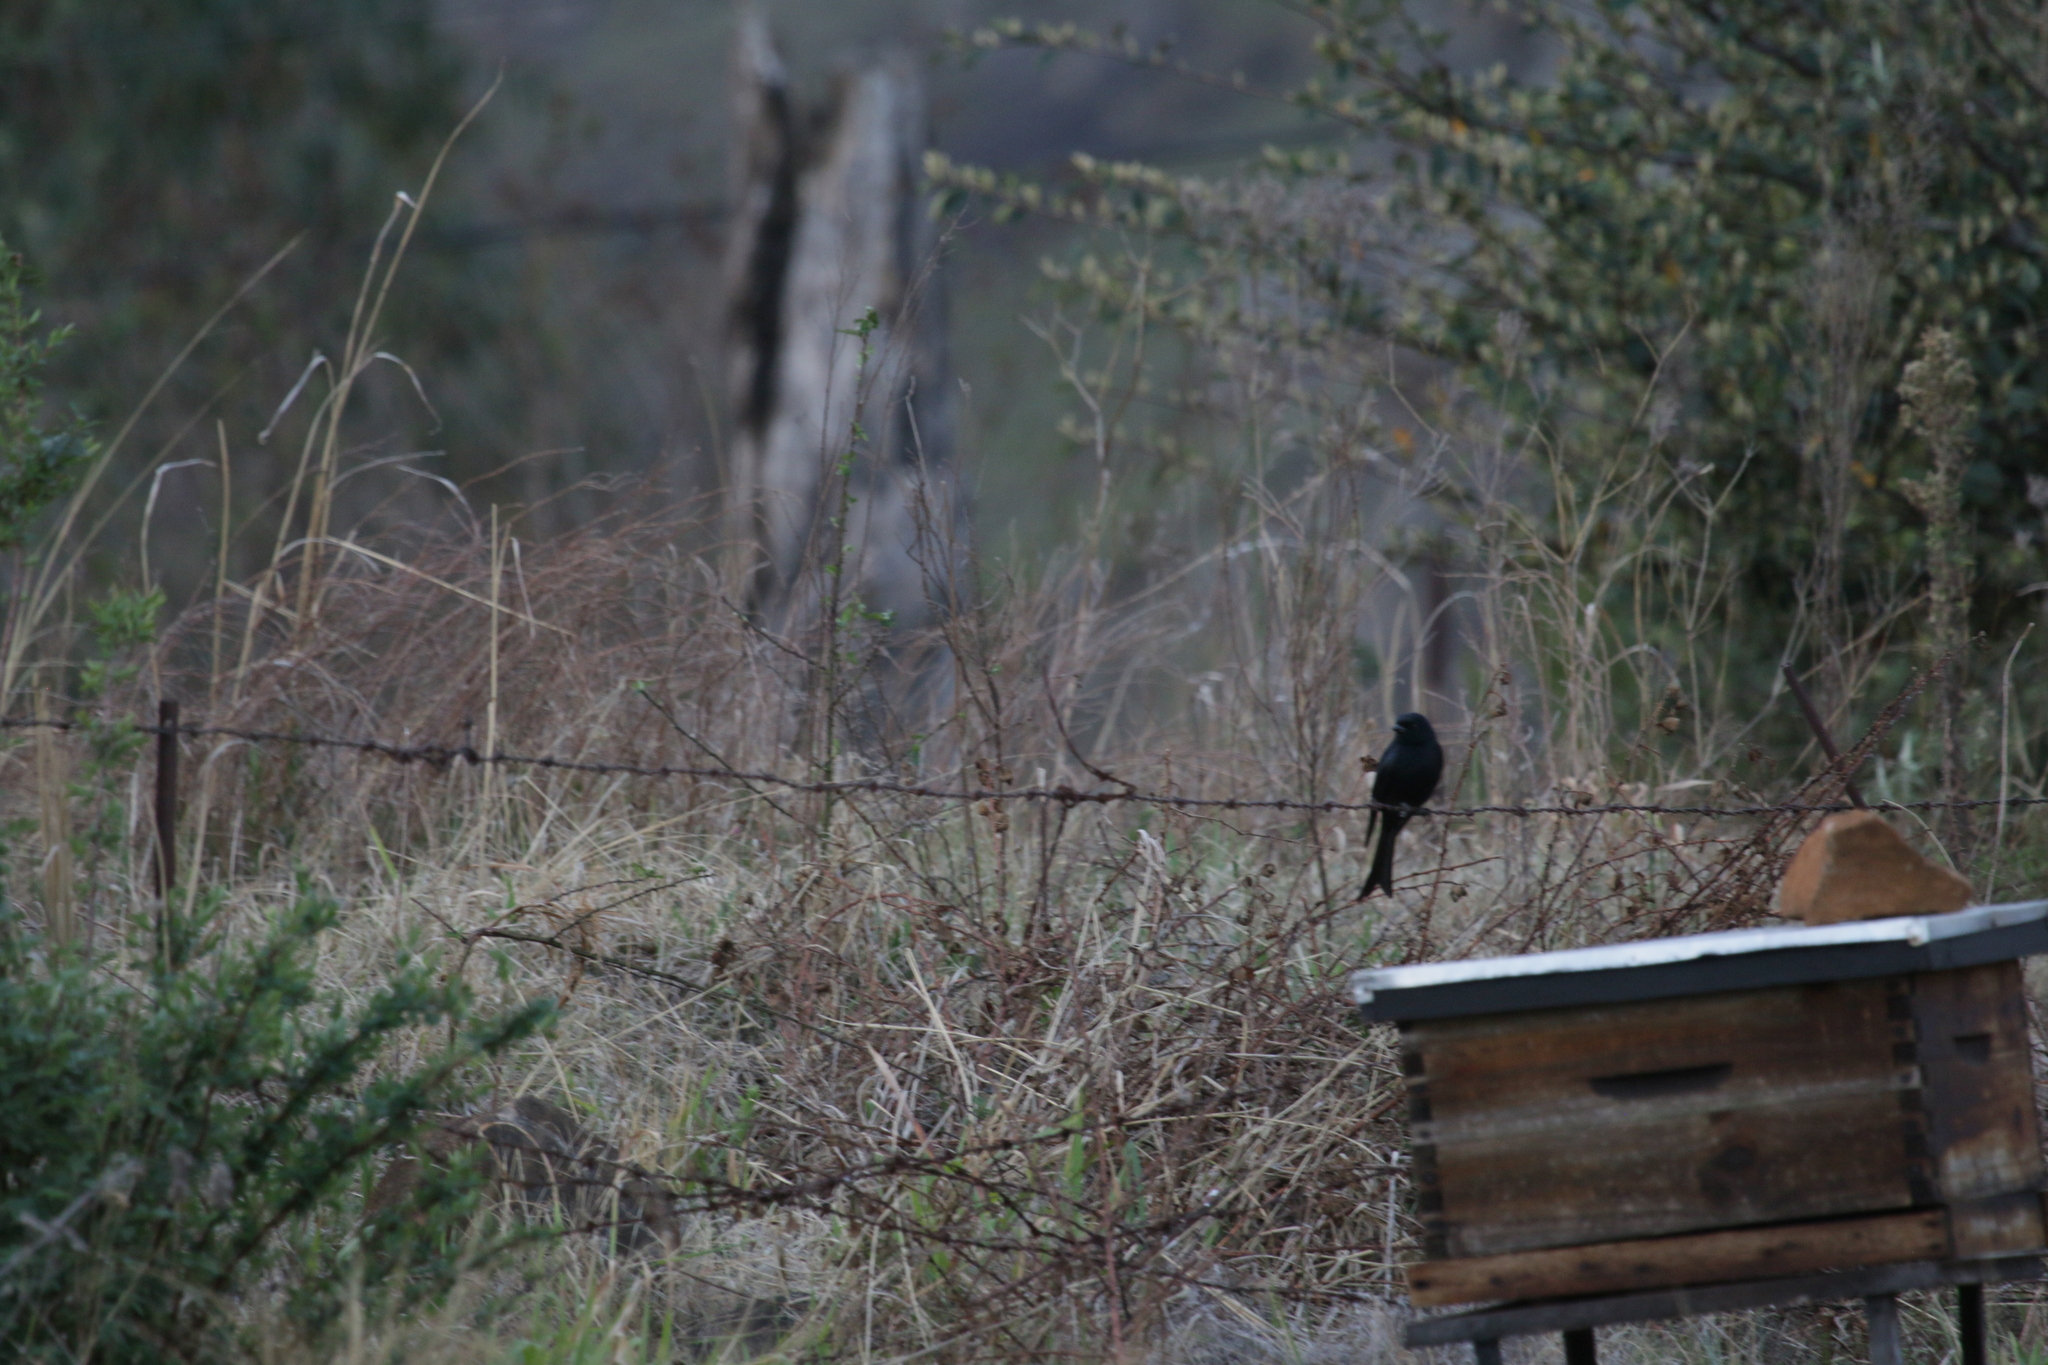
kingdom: Animalia
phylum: Chordata
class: Aves
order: Passeriformes
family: Dicruridae
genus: Dicrurus
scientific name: Dicrurus adsimilis
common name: Fork-tailed drongo
